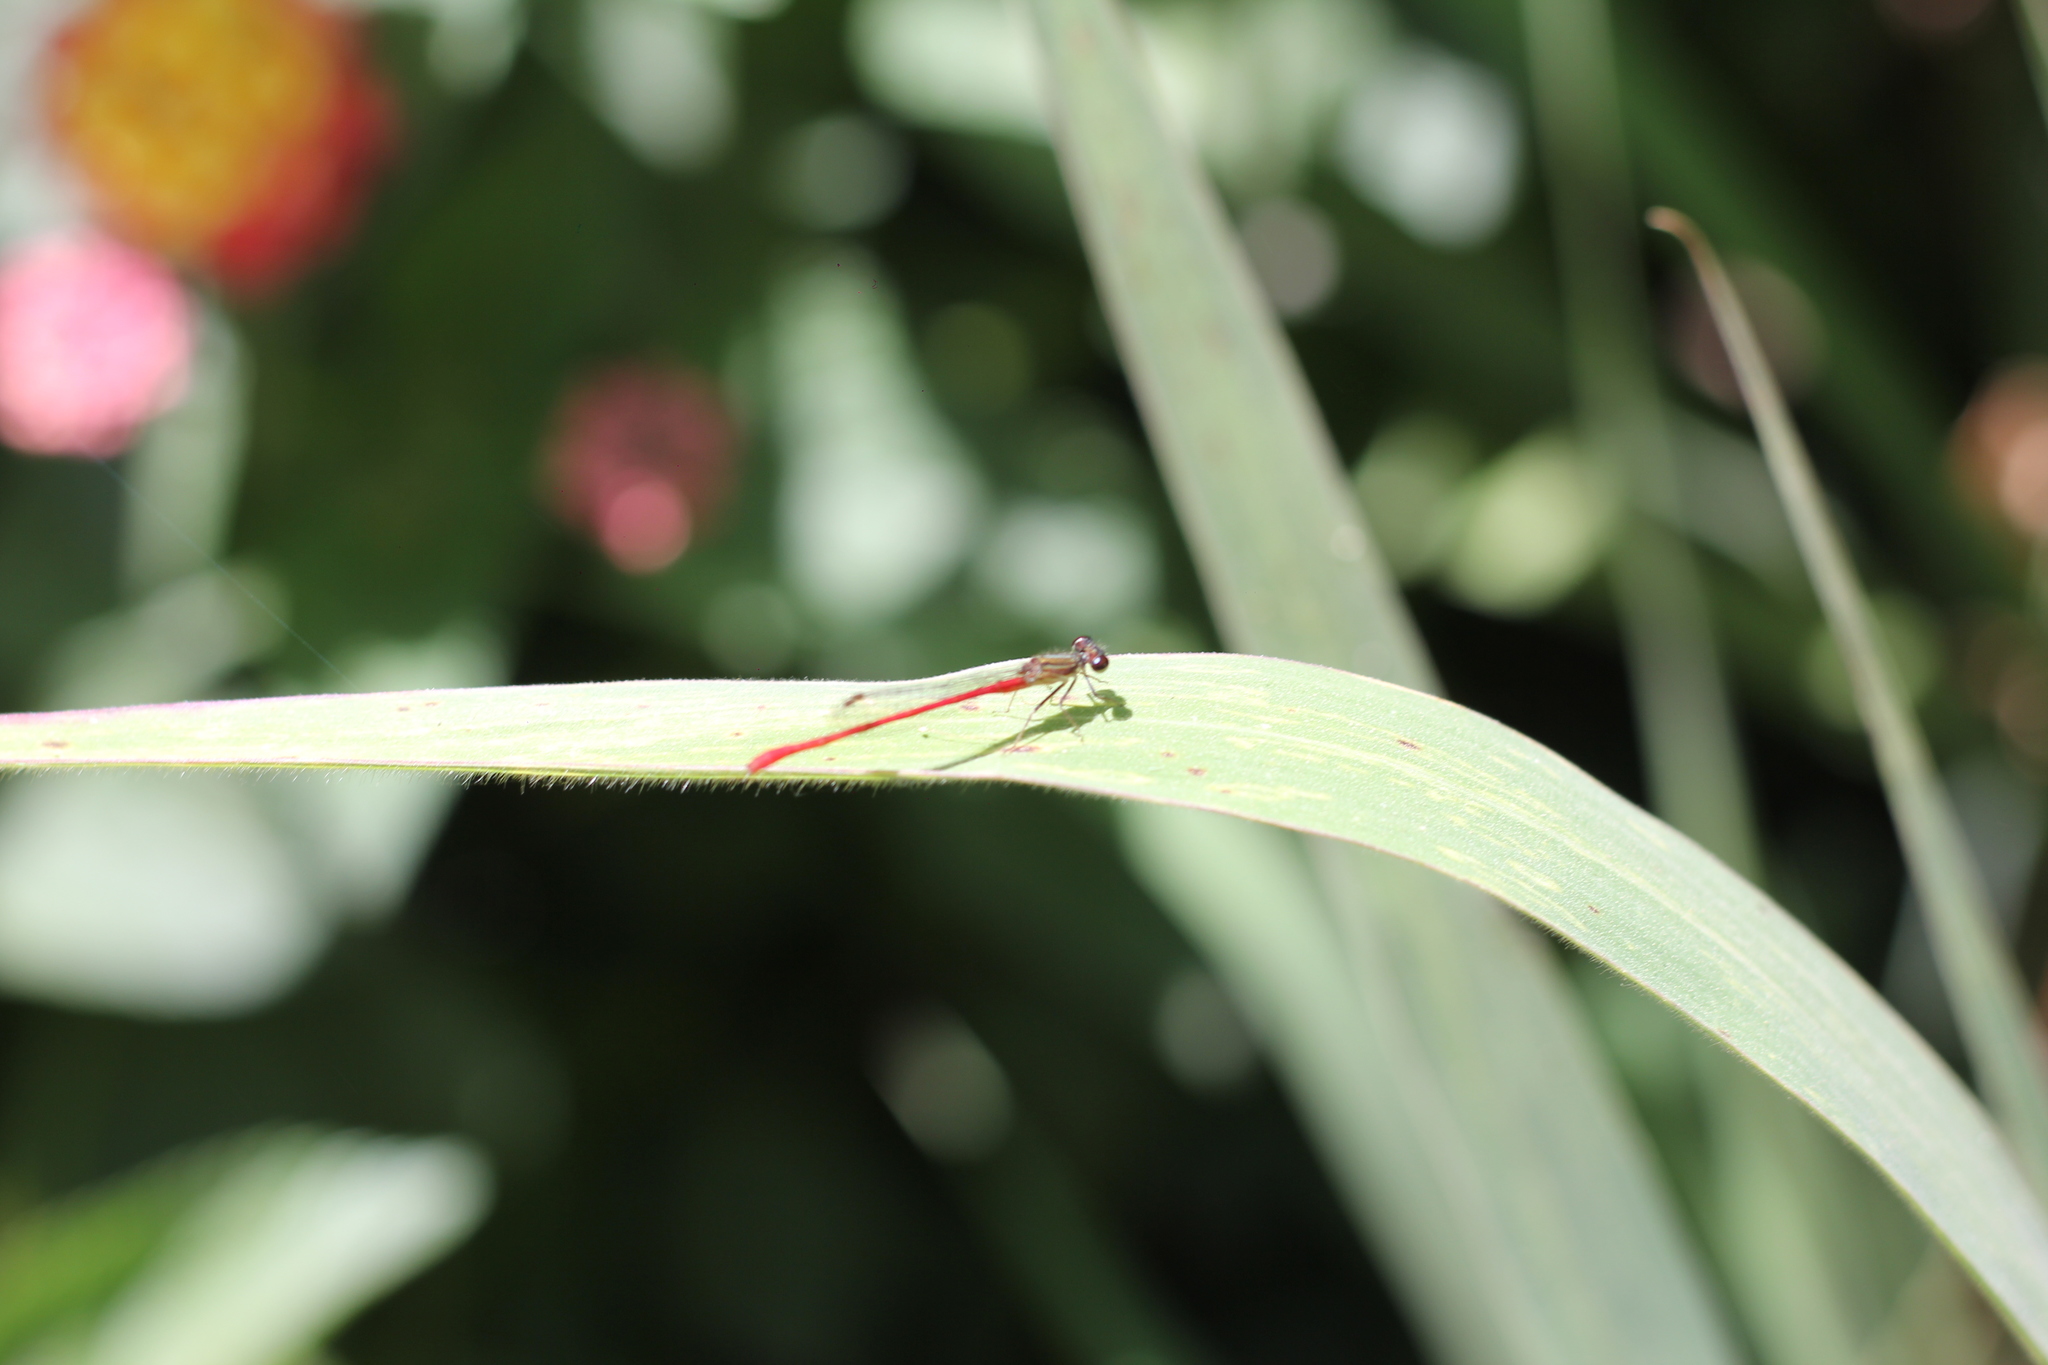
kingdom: Animalia
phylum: Arthropoda
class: Insecta
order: Odonata
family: Coenagrionidae
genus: Telebasis
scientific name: Telebasis willinki
